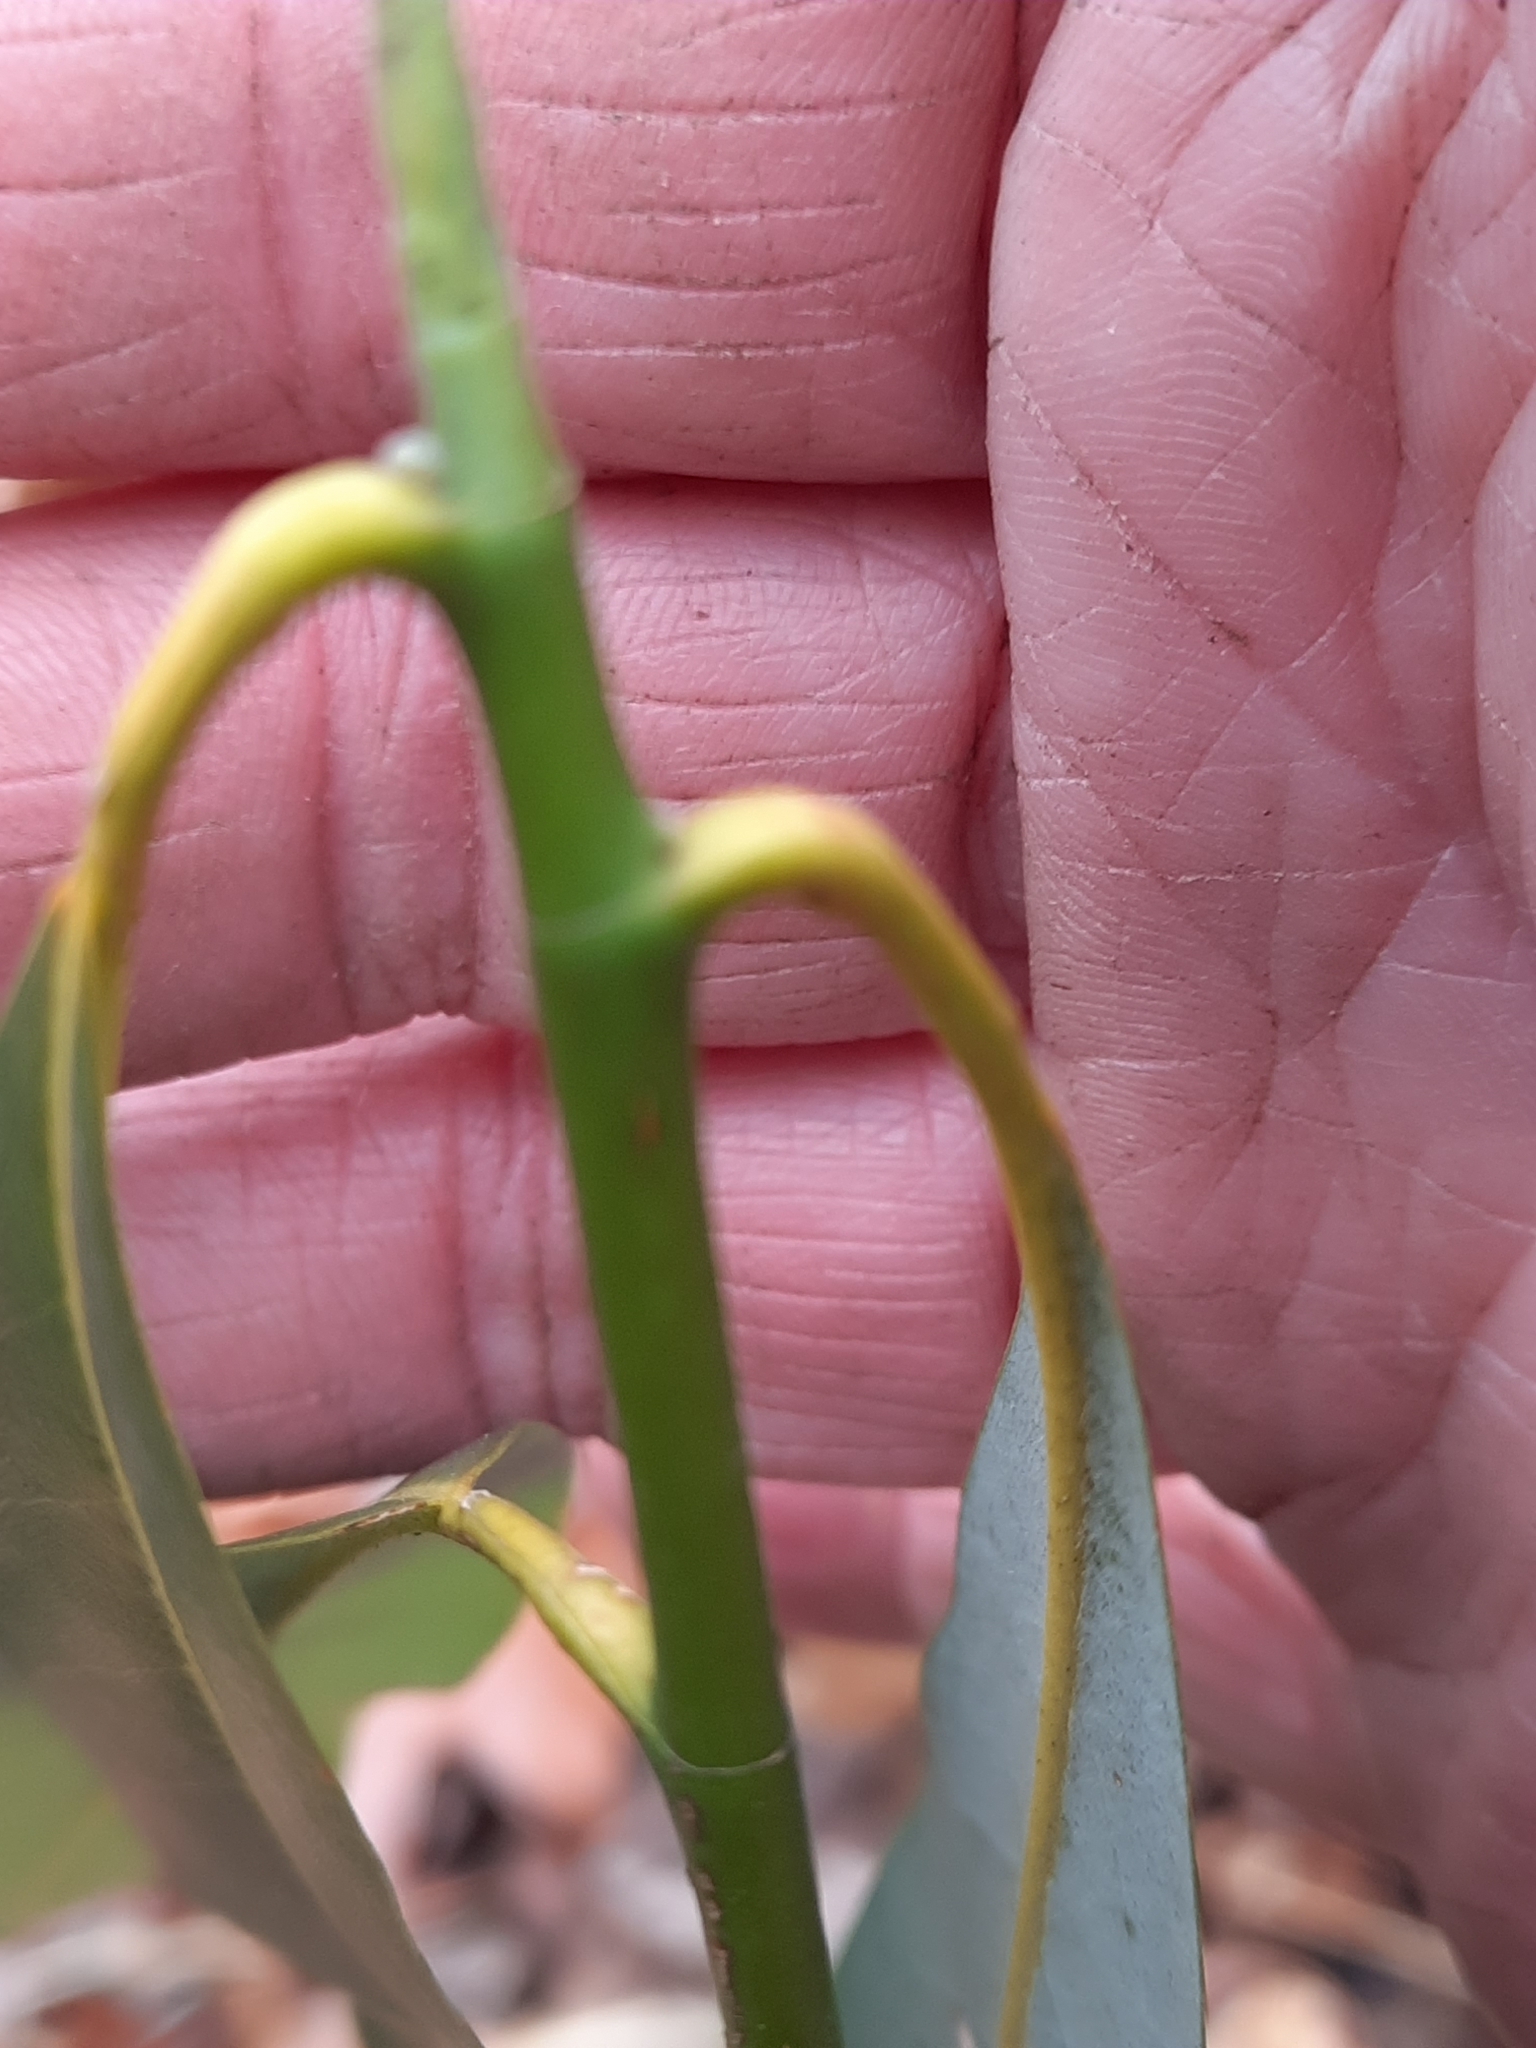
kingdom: Plantae
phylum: Tracheophyta
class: Magnoliopsida
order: Magnoliales
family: Magnoliaceae
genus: Magnolia
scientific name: Magnolia virginiana
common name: Swamp bay
